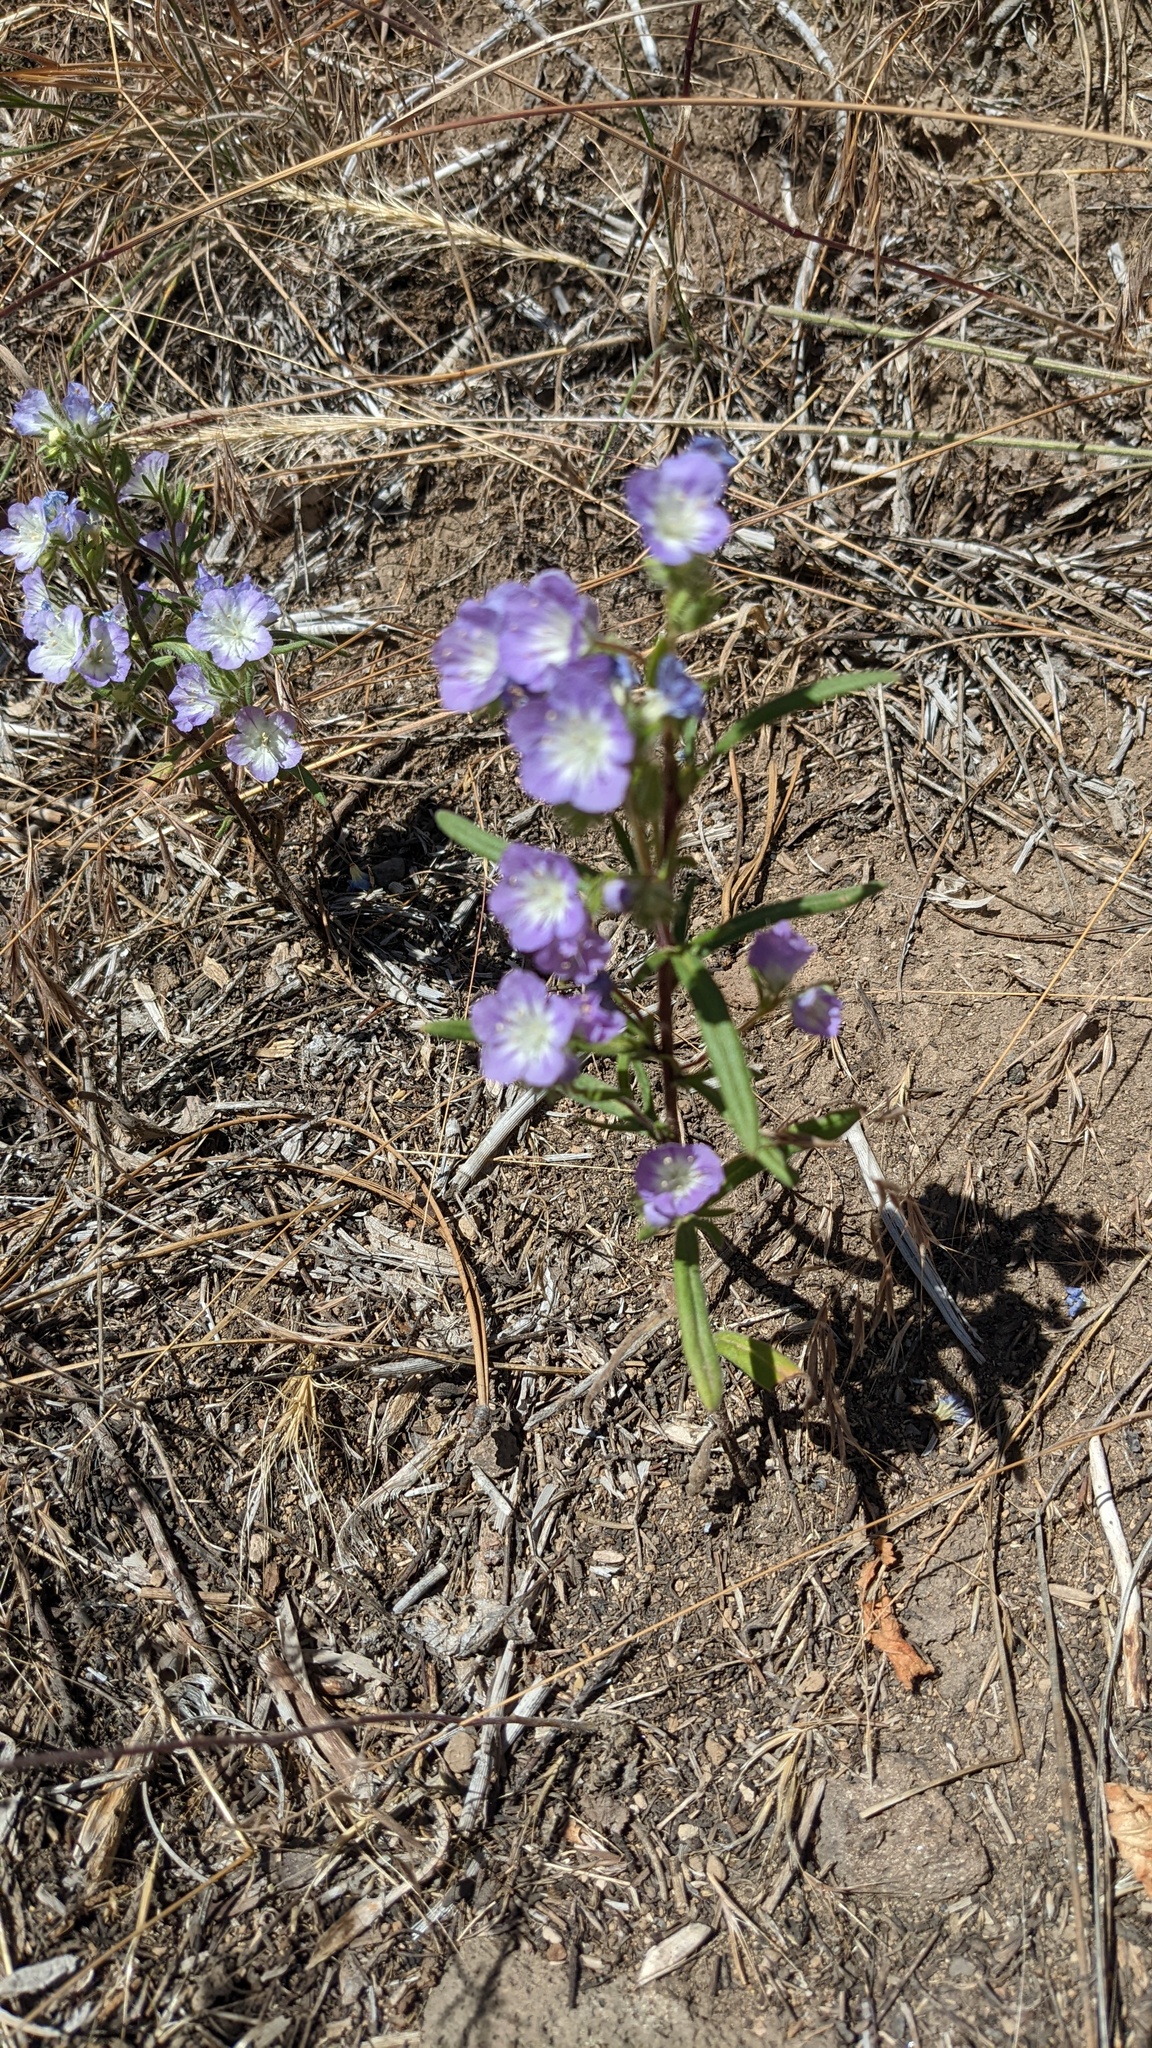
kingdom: Plantae
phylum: Tracheophyta
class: Magnoliopsida
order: Boraginales
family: Hydrophyllaceae
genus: Phacelia
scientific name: Phacelia linearis
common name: Linear-leaved phacelia
